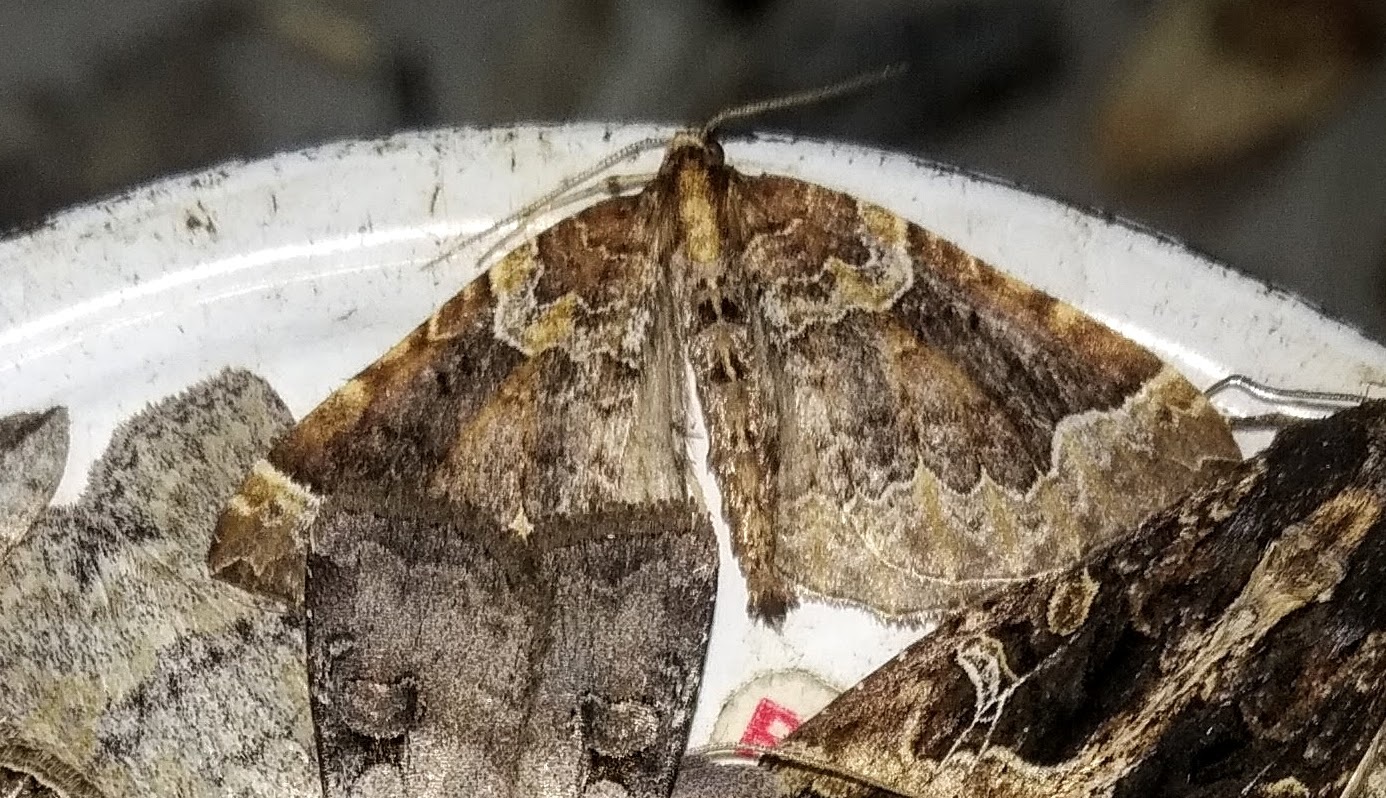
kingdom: Animalia
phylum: Arthropoda
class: Insecta
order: Lepidoptera
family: Geometridae
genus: Eulithis
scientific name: Eulithis flavibrunneata
